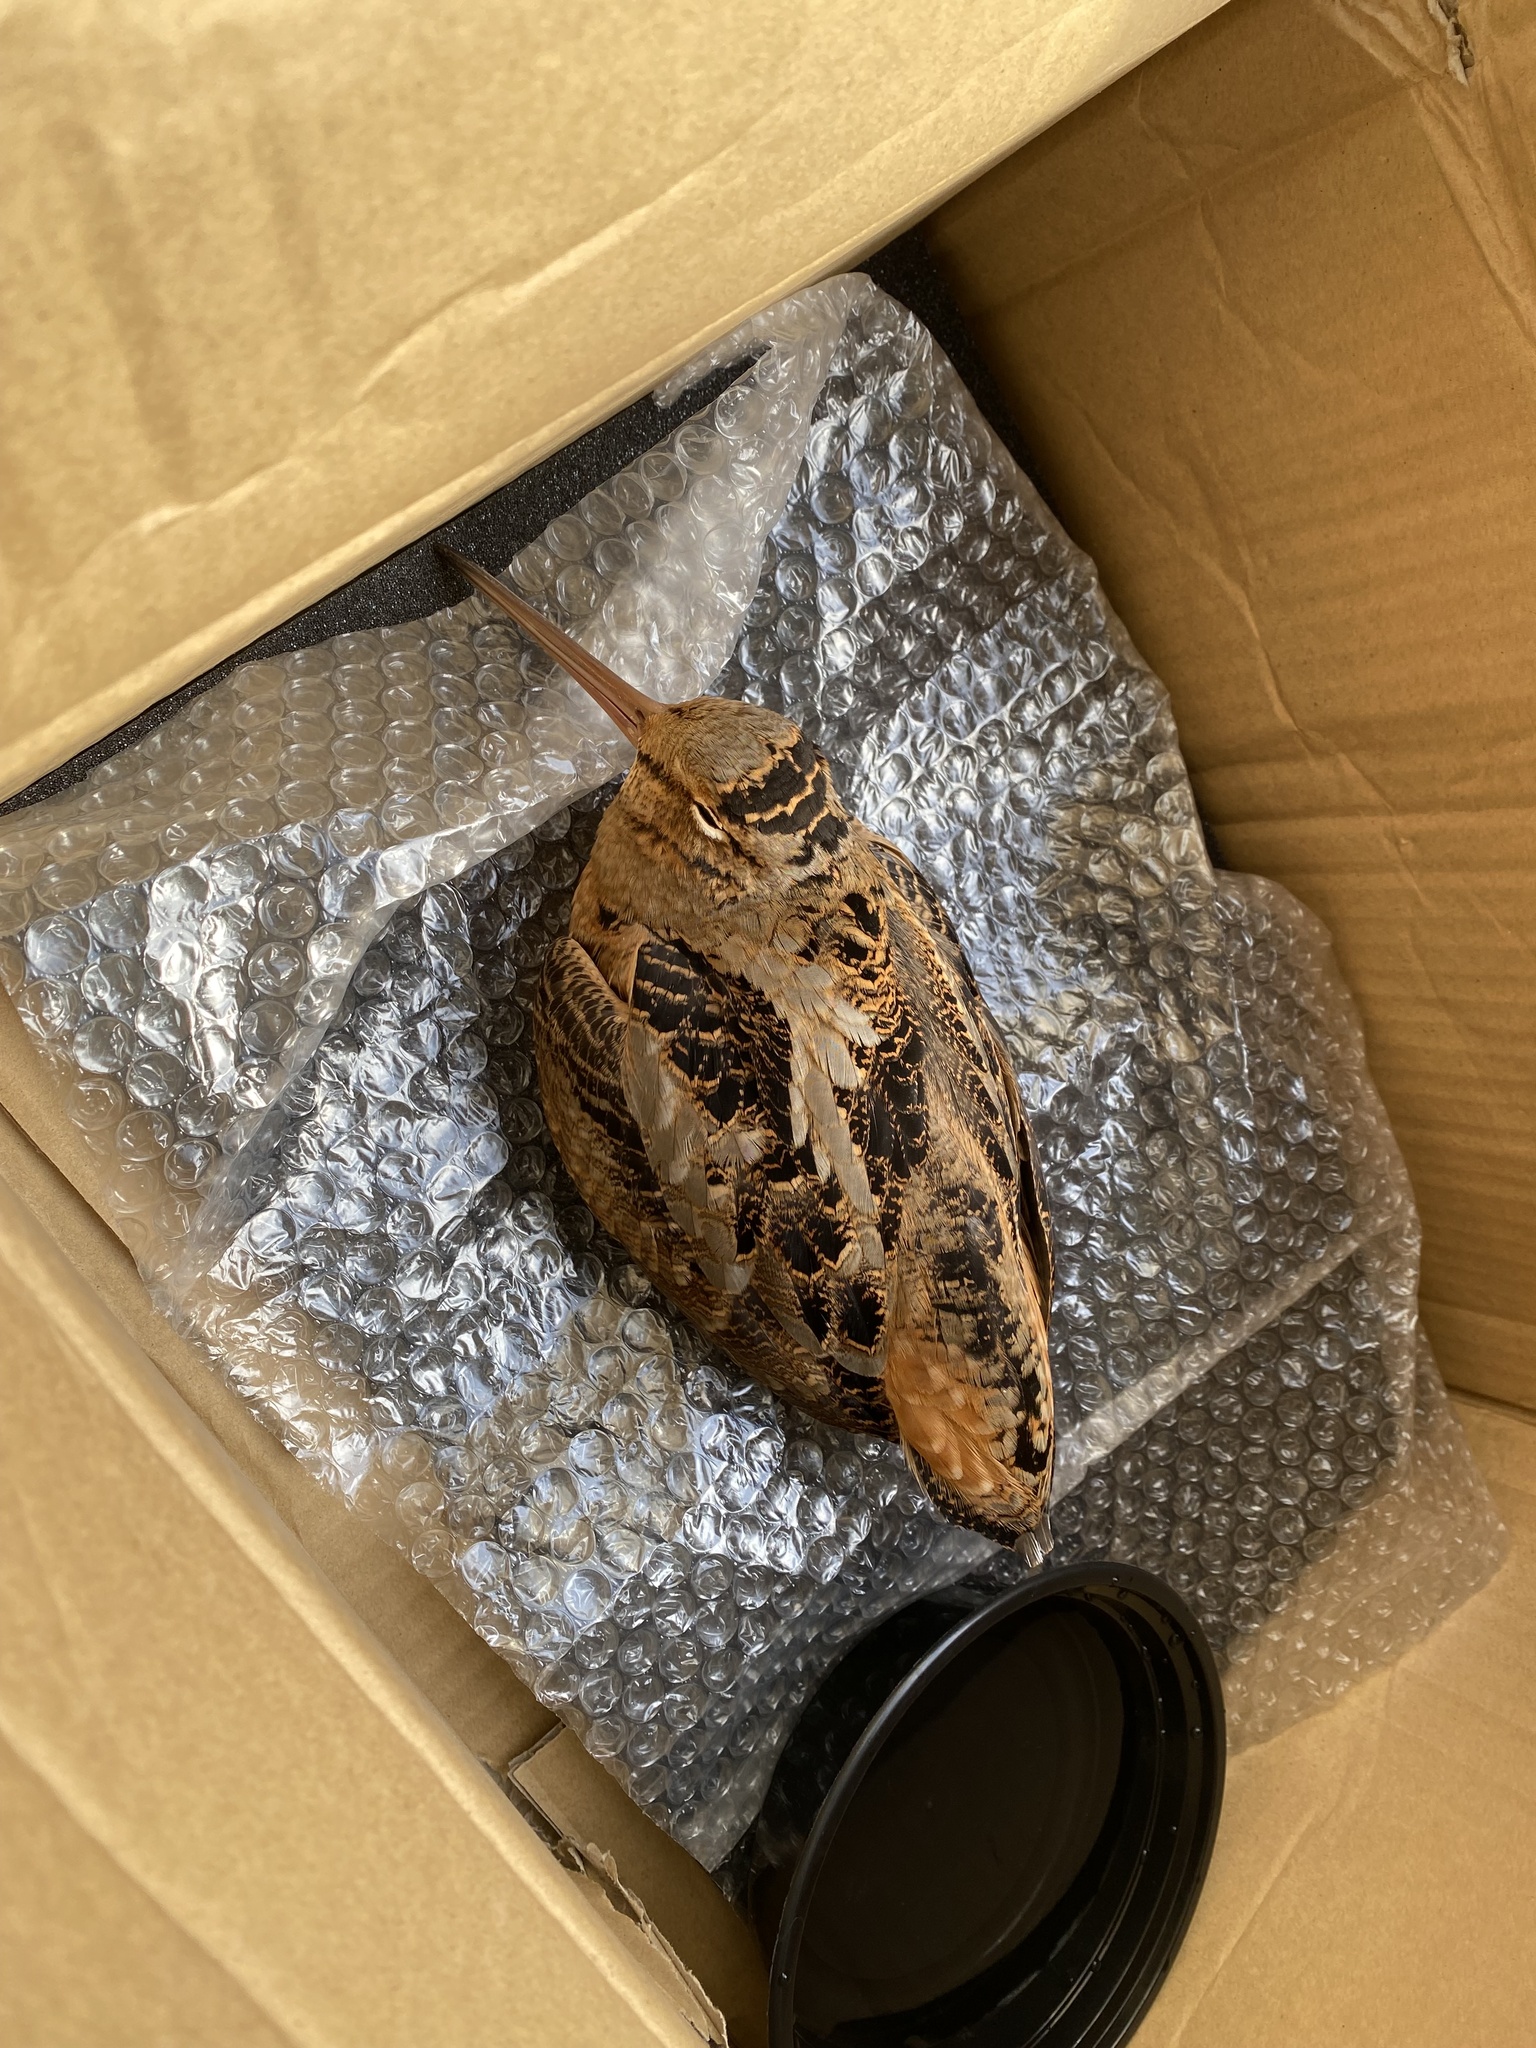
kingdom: Animalia
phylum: Chordata
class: Aves
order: Charadriiformes
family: Scolopacidae
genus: Scolopax
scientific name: Scolopax minor
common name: American woodcock
